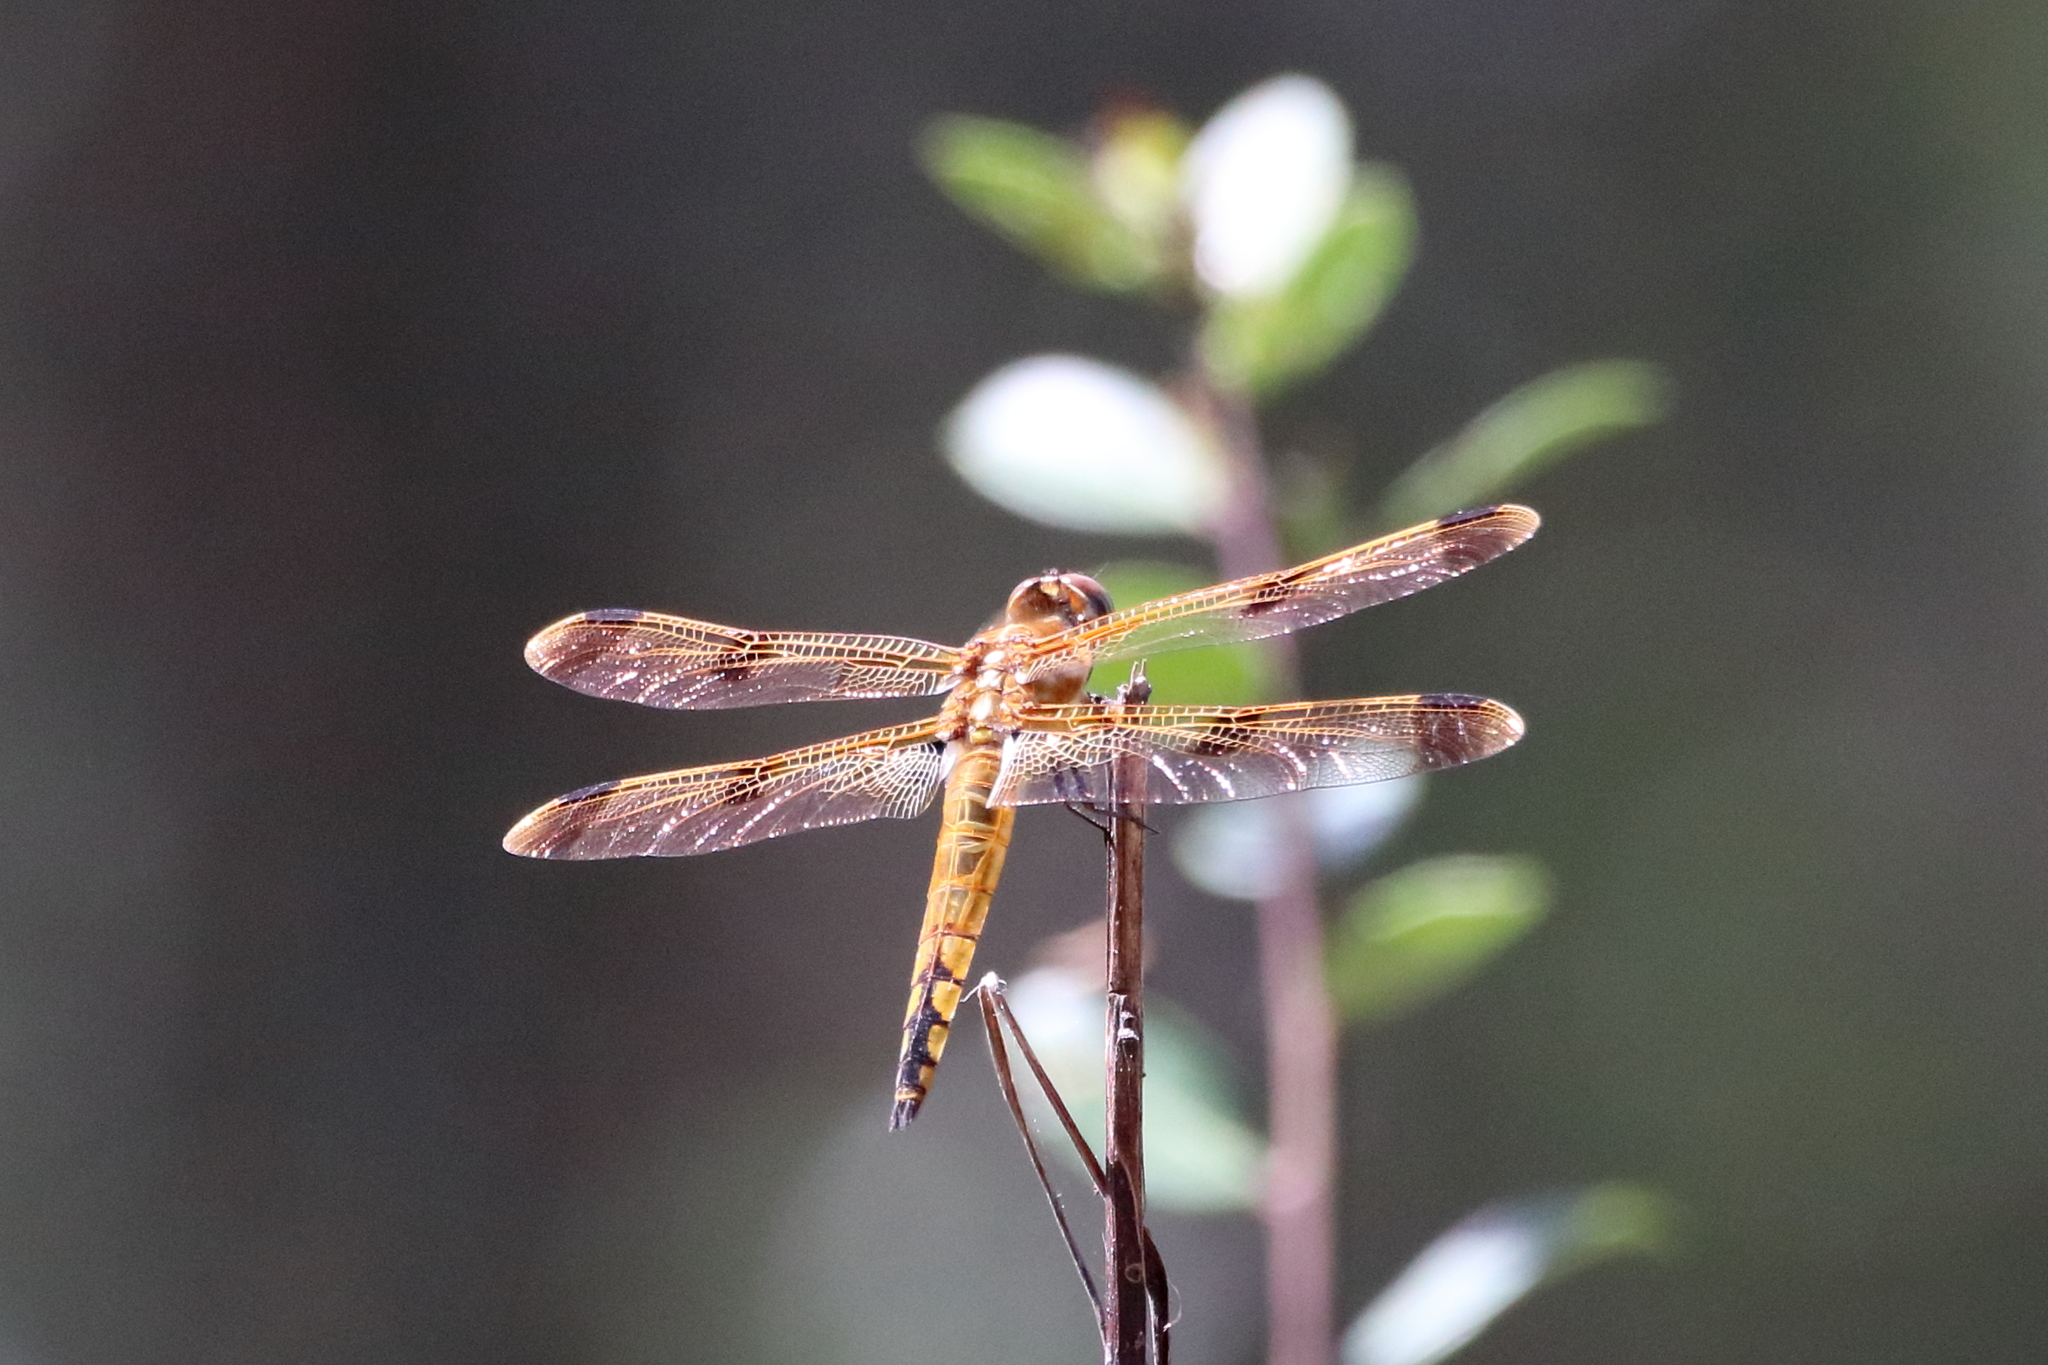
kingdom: Animalia
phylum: Arthropoda
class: Insecta
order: Odonata
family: Libellulidae
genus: Libellula
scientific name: Libellula semifasciata
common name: Painted skimmer
